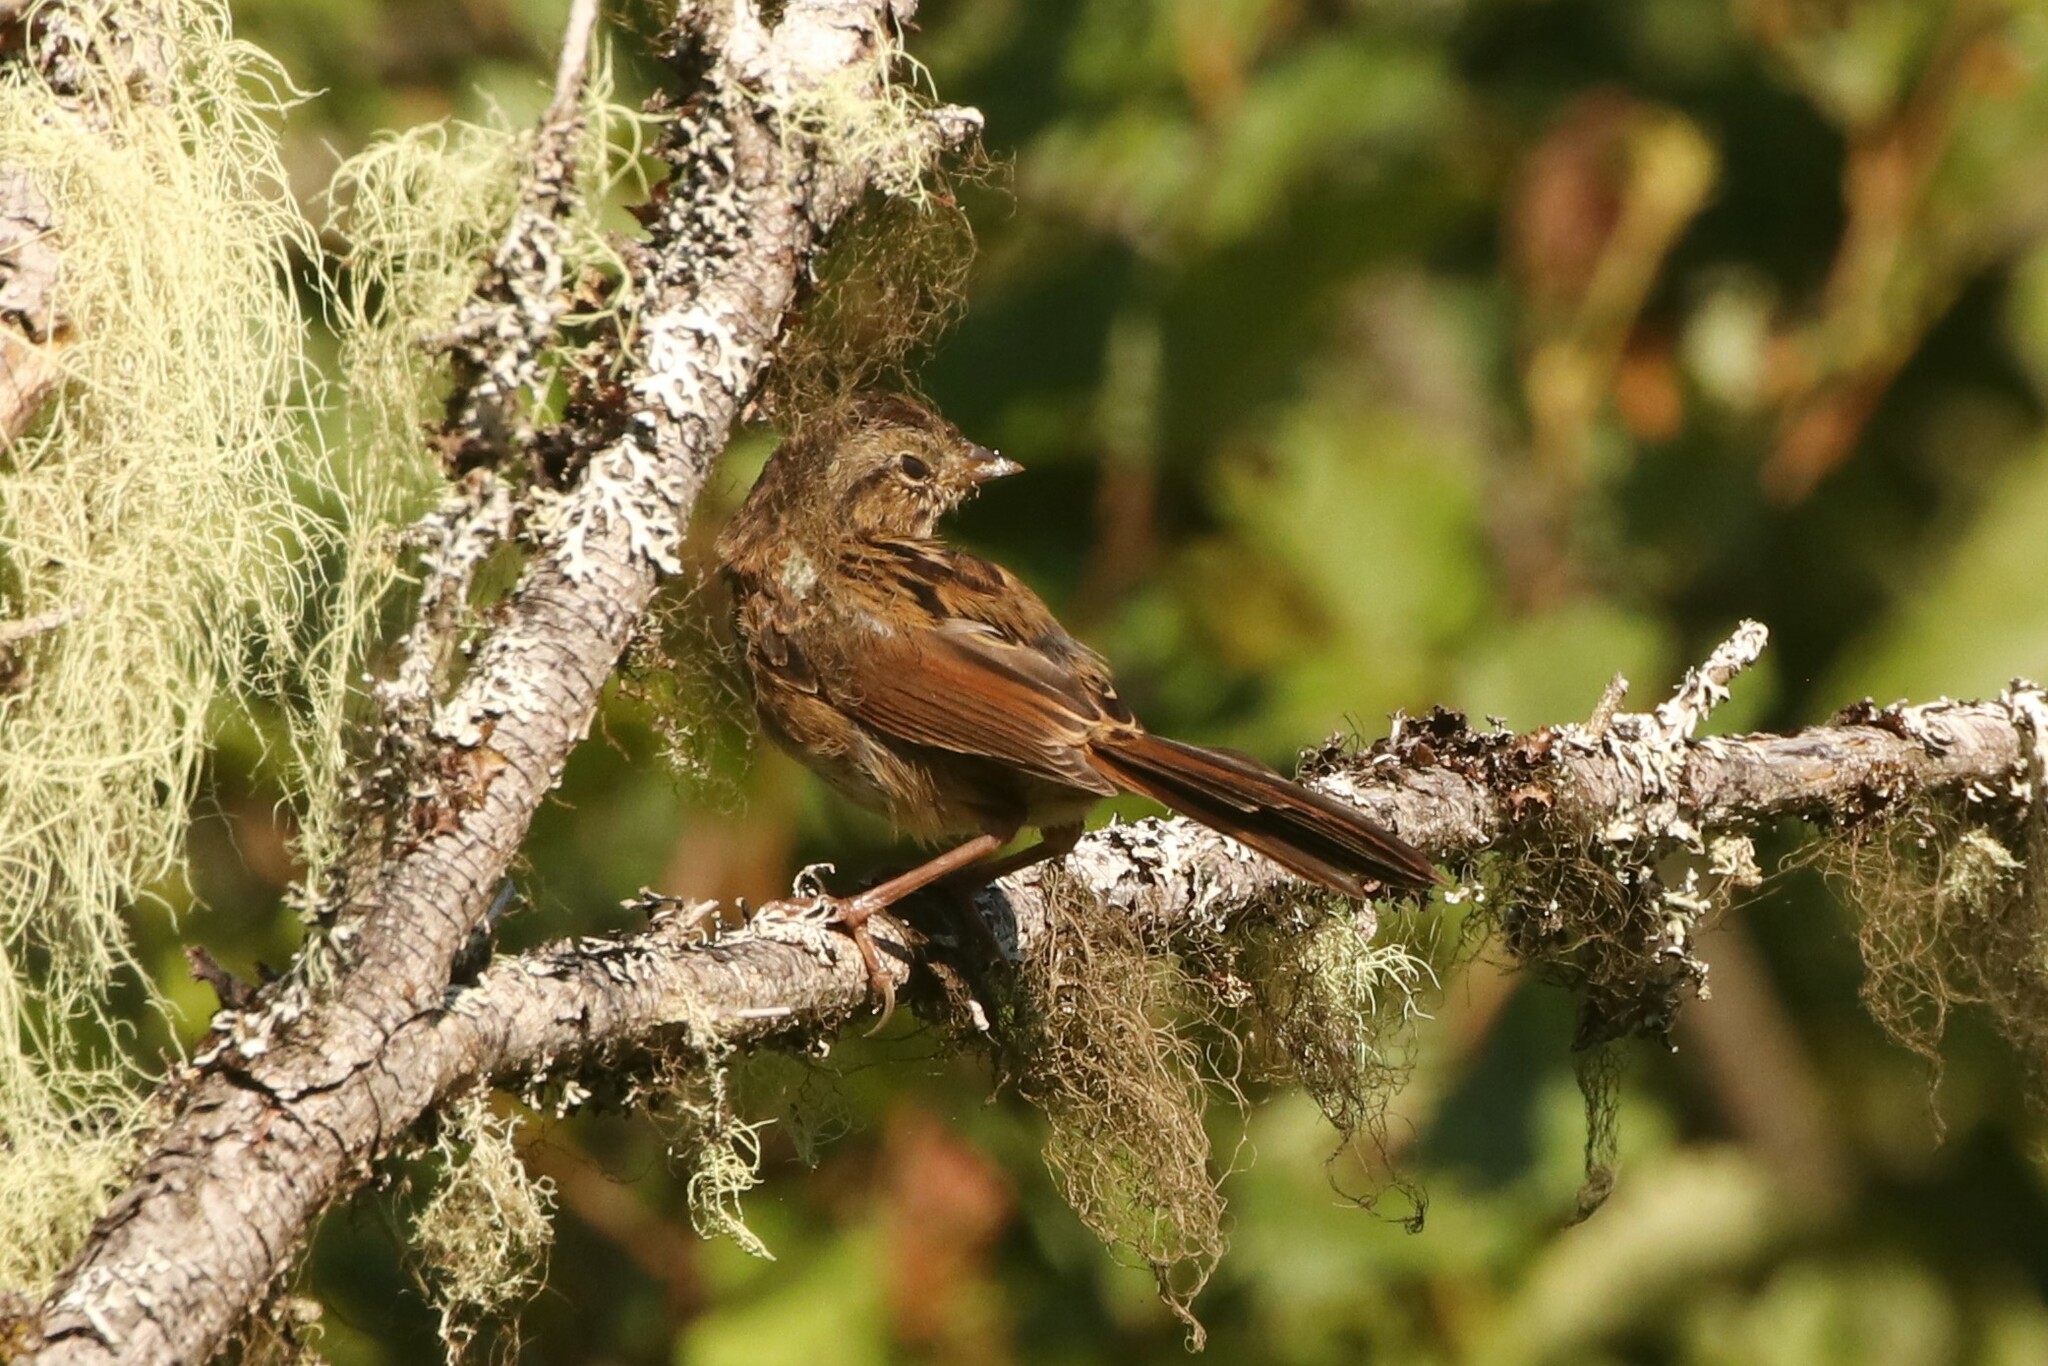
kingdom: Animalia
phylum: Chordata
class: Aves
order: Passeriformes
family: Passerellidae
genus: Melospiza
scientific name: Melospiza georgiana
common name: Swamp sparrow
